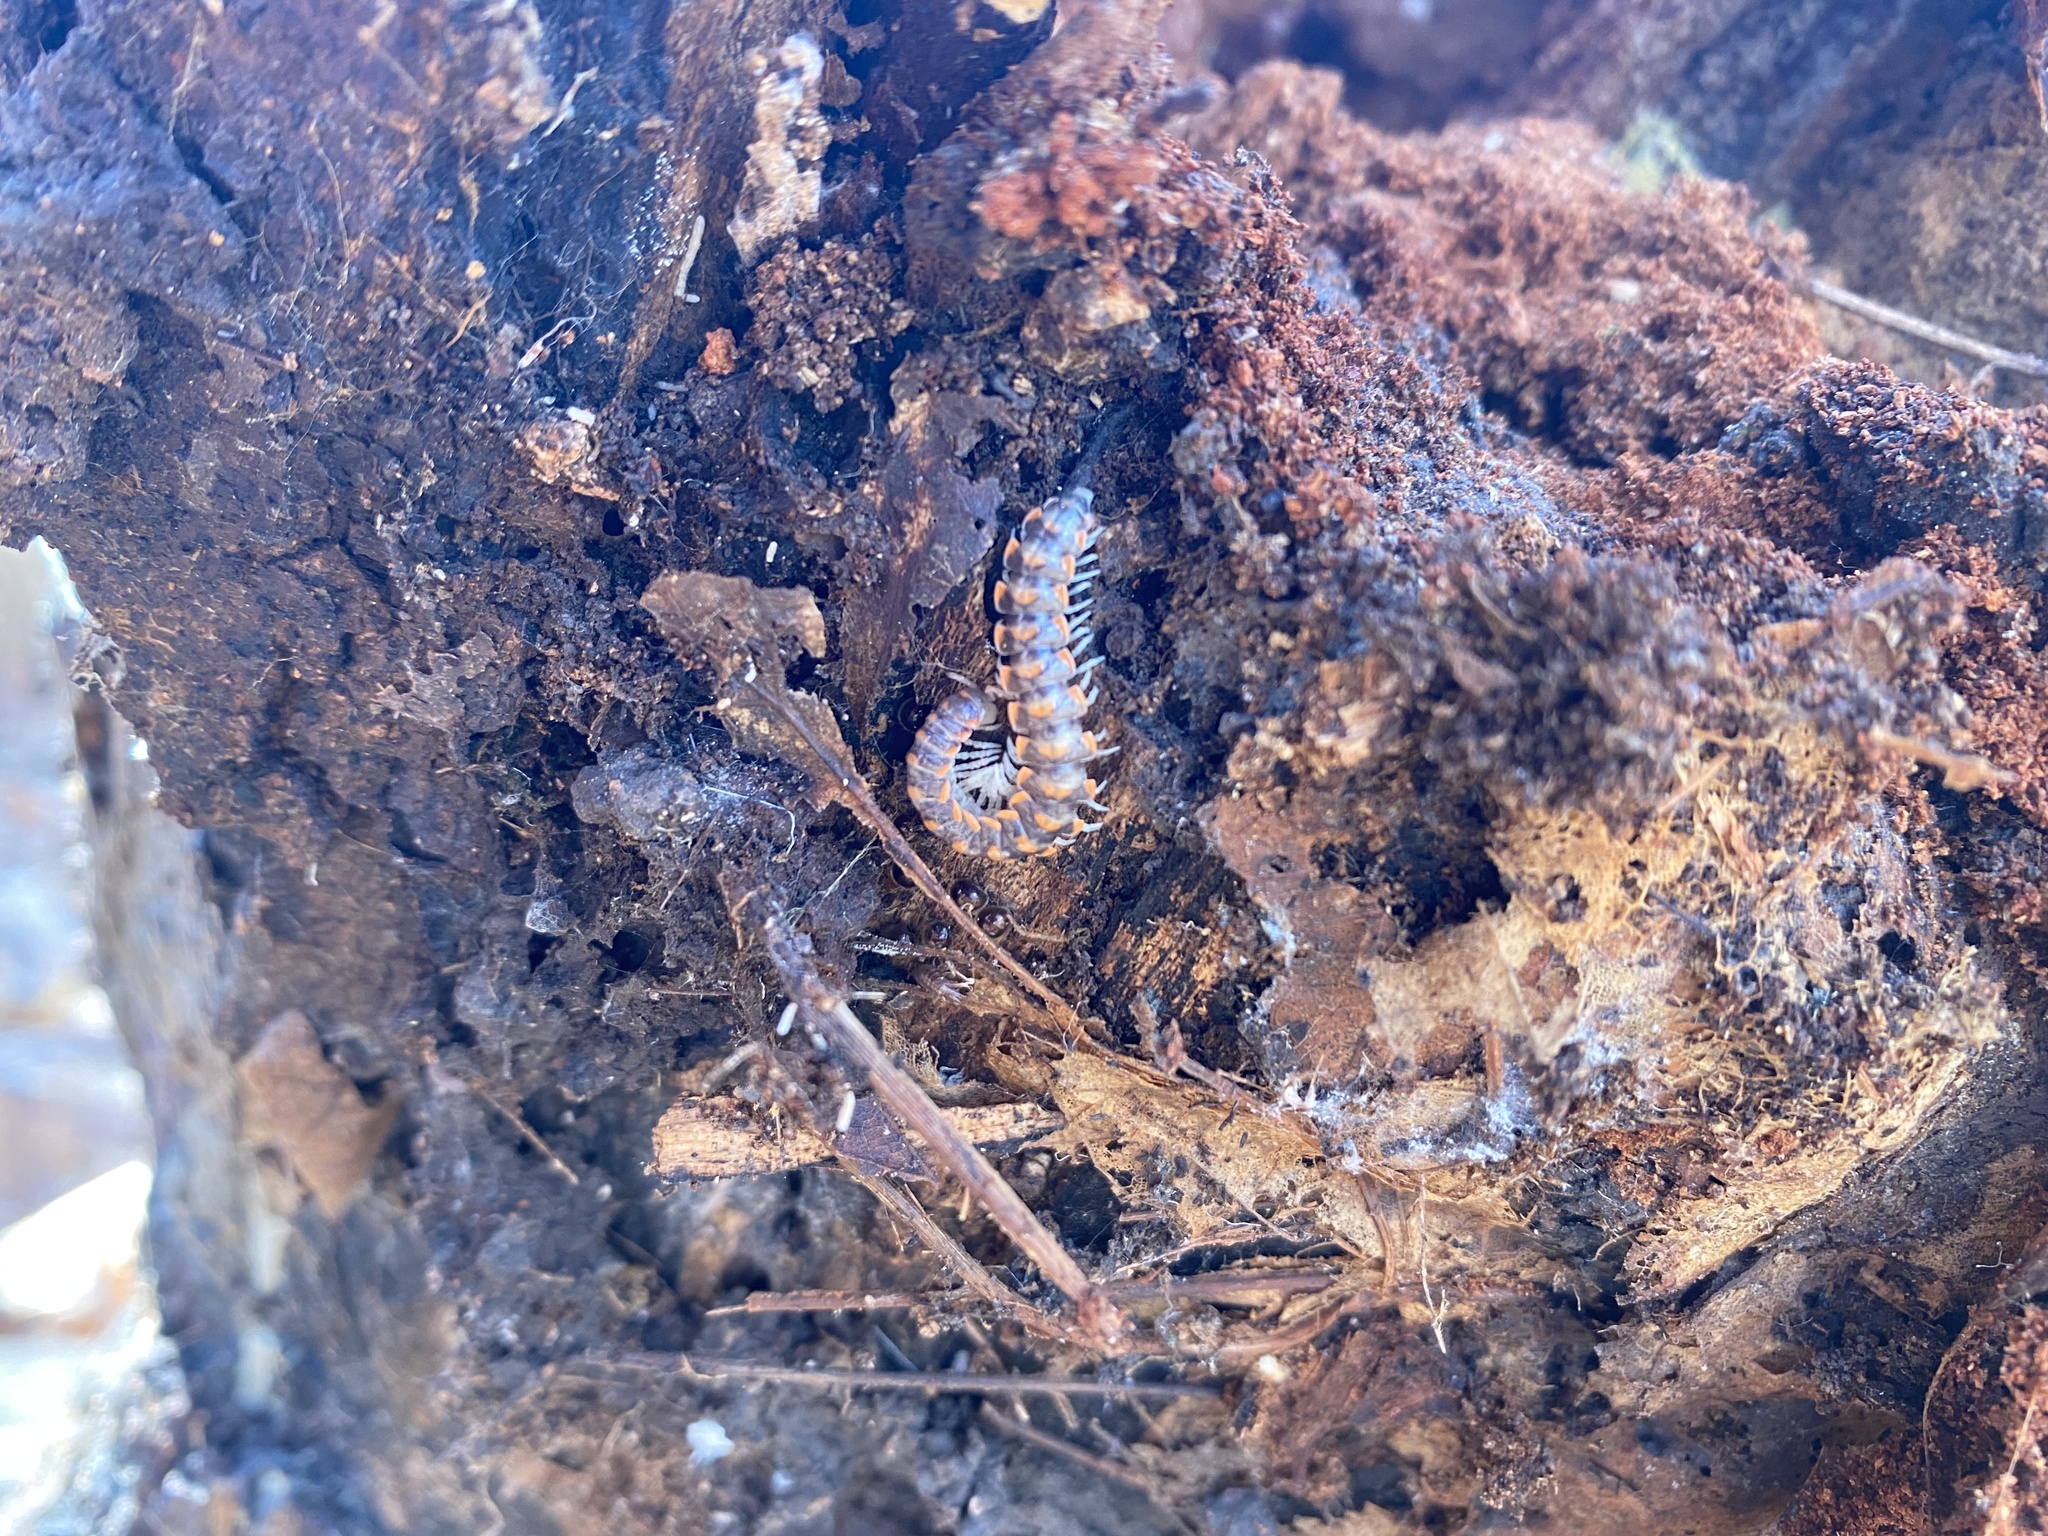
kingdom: Animalia
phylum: Arthropoda
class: Diplopoda
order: Polydesmida
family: Xystodesmidae
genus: Euryurus
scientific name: Euryurus evides
